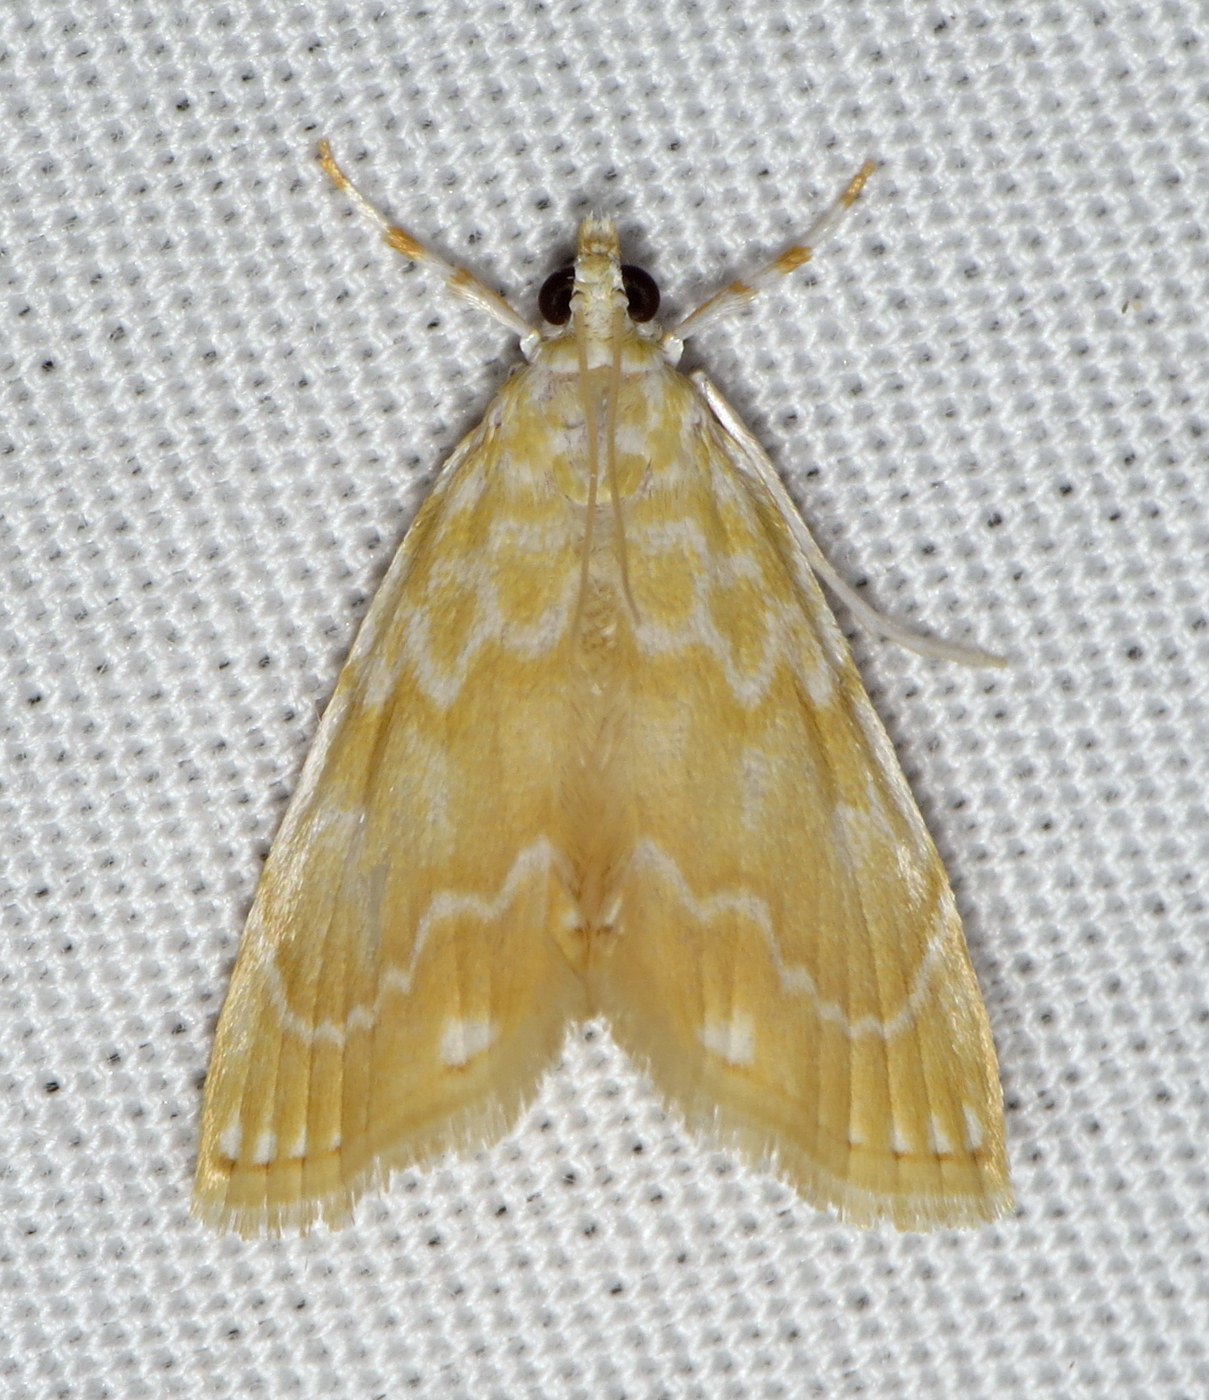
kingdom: Animalia
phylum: Arthropoda
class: Insecta
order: Lepidoptera
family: Crambidae
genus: Glaphyria
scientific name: Glaphyria glaphyralis
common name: Common glaphyria moth
